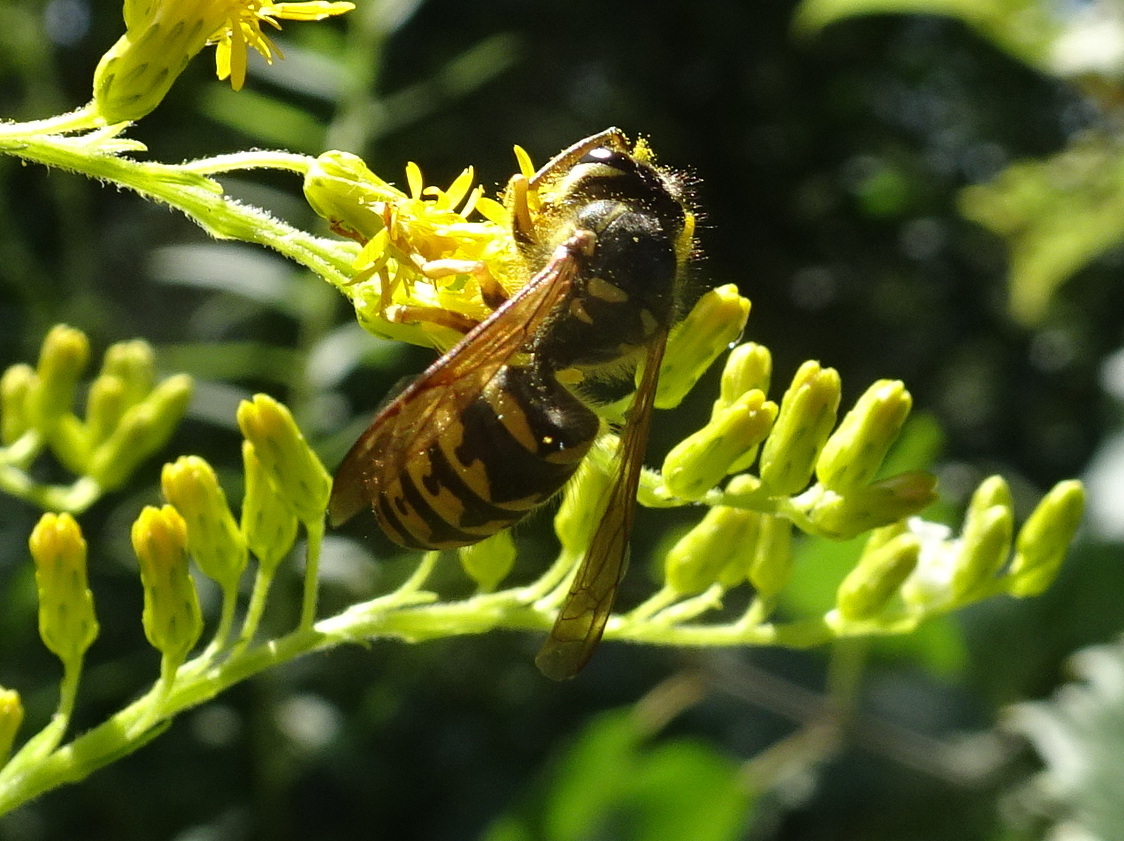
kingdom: Animalia
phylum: Arthropoda
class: Insecta
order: Hymenoptera
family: Vespidae
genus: Dolichovespula
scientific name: Dolichovespula arenaria
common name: Aerial yellowjacket
